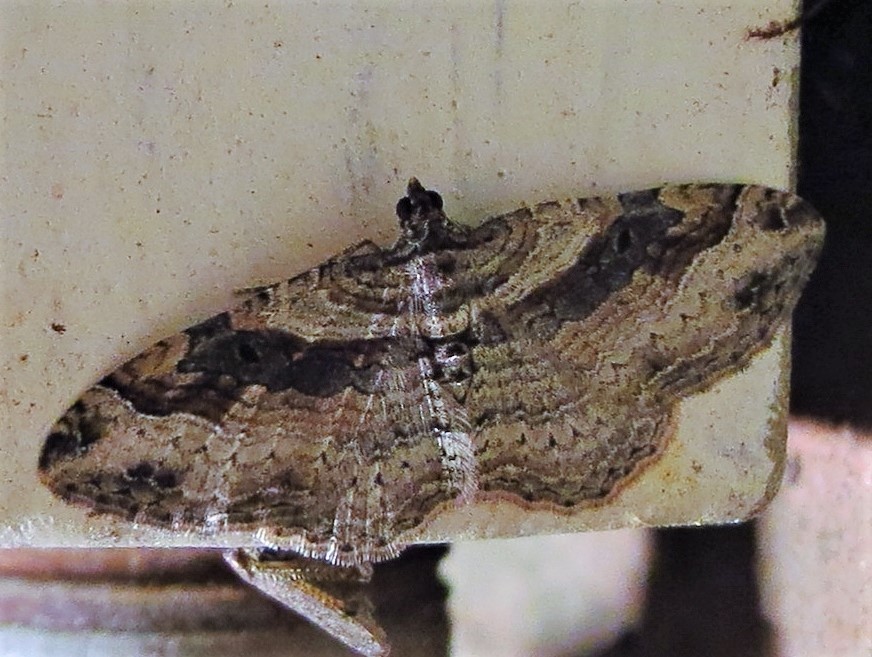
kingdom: Animalia
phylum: Arthropoda
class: Insecta
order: Lepidoptera
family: Geometridae
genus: Costaconvexa
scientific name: Costaconvexa centrostrigaria
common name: Bent-line carpet
